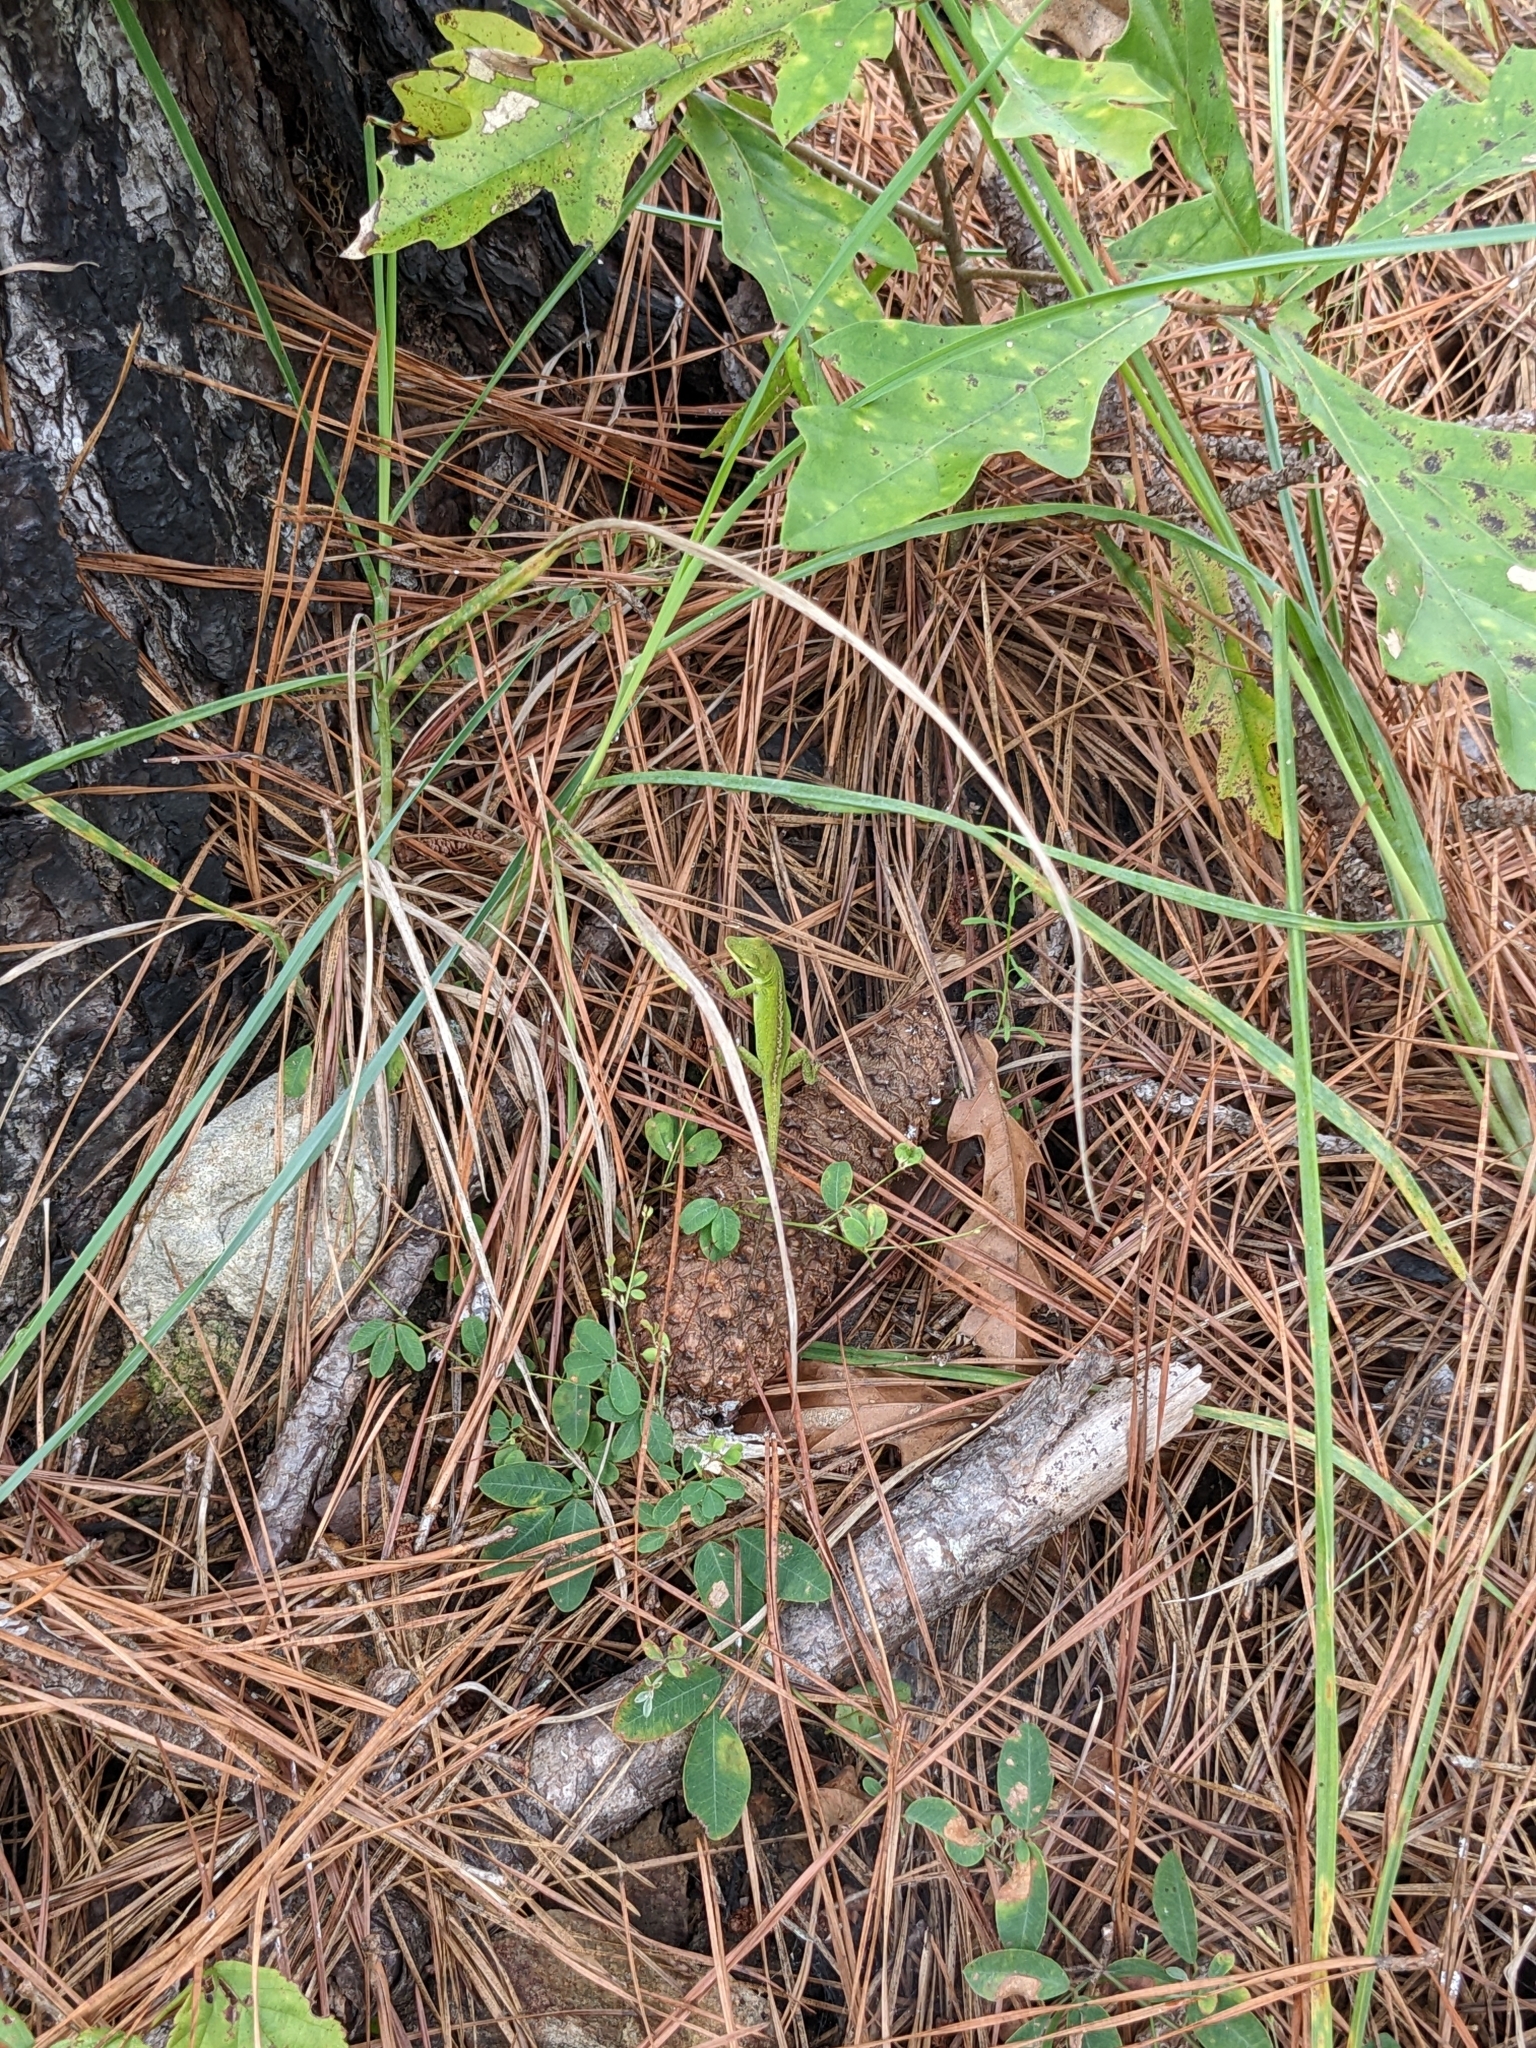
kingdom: Animalia
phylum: Chordata
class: Squamata
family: Dactyloidae
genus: Anolis
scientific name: Anolis carolinensis
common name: Green anole
